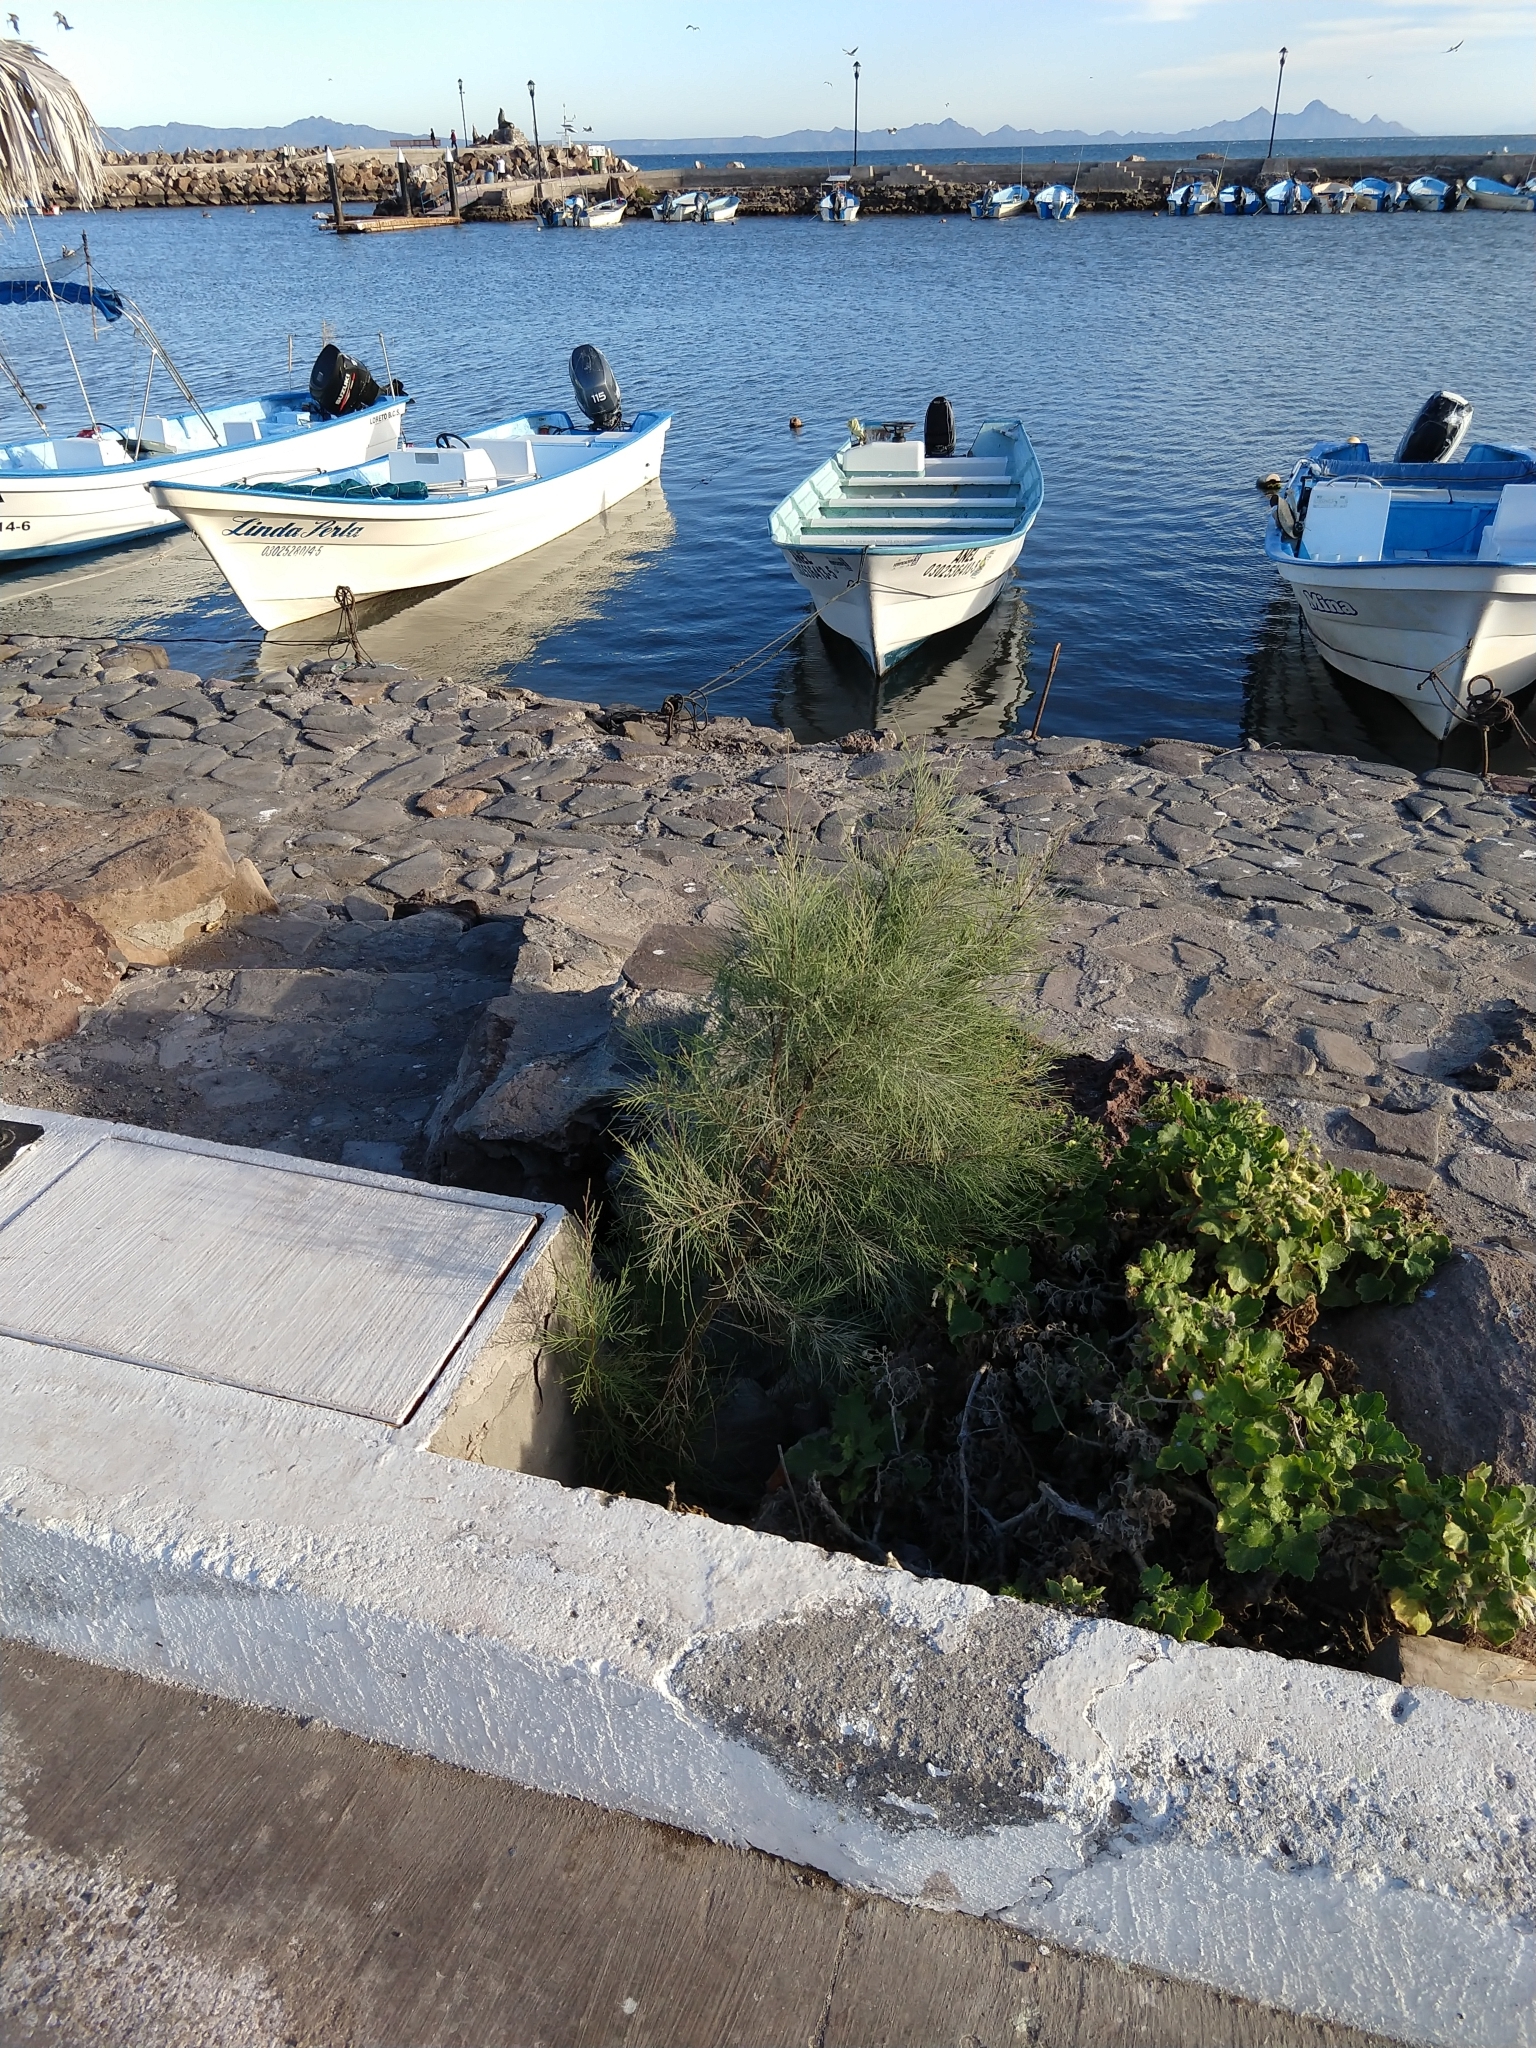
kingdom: Plantae
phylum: Tracheophyta
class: Magnoliopsida
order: Caryophyllales
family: Tamaricaceae
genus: Tamarix
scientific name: Tamarix aphylla
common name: Athel tamarisk
